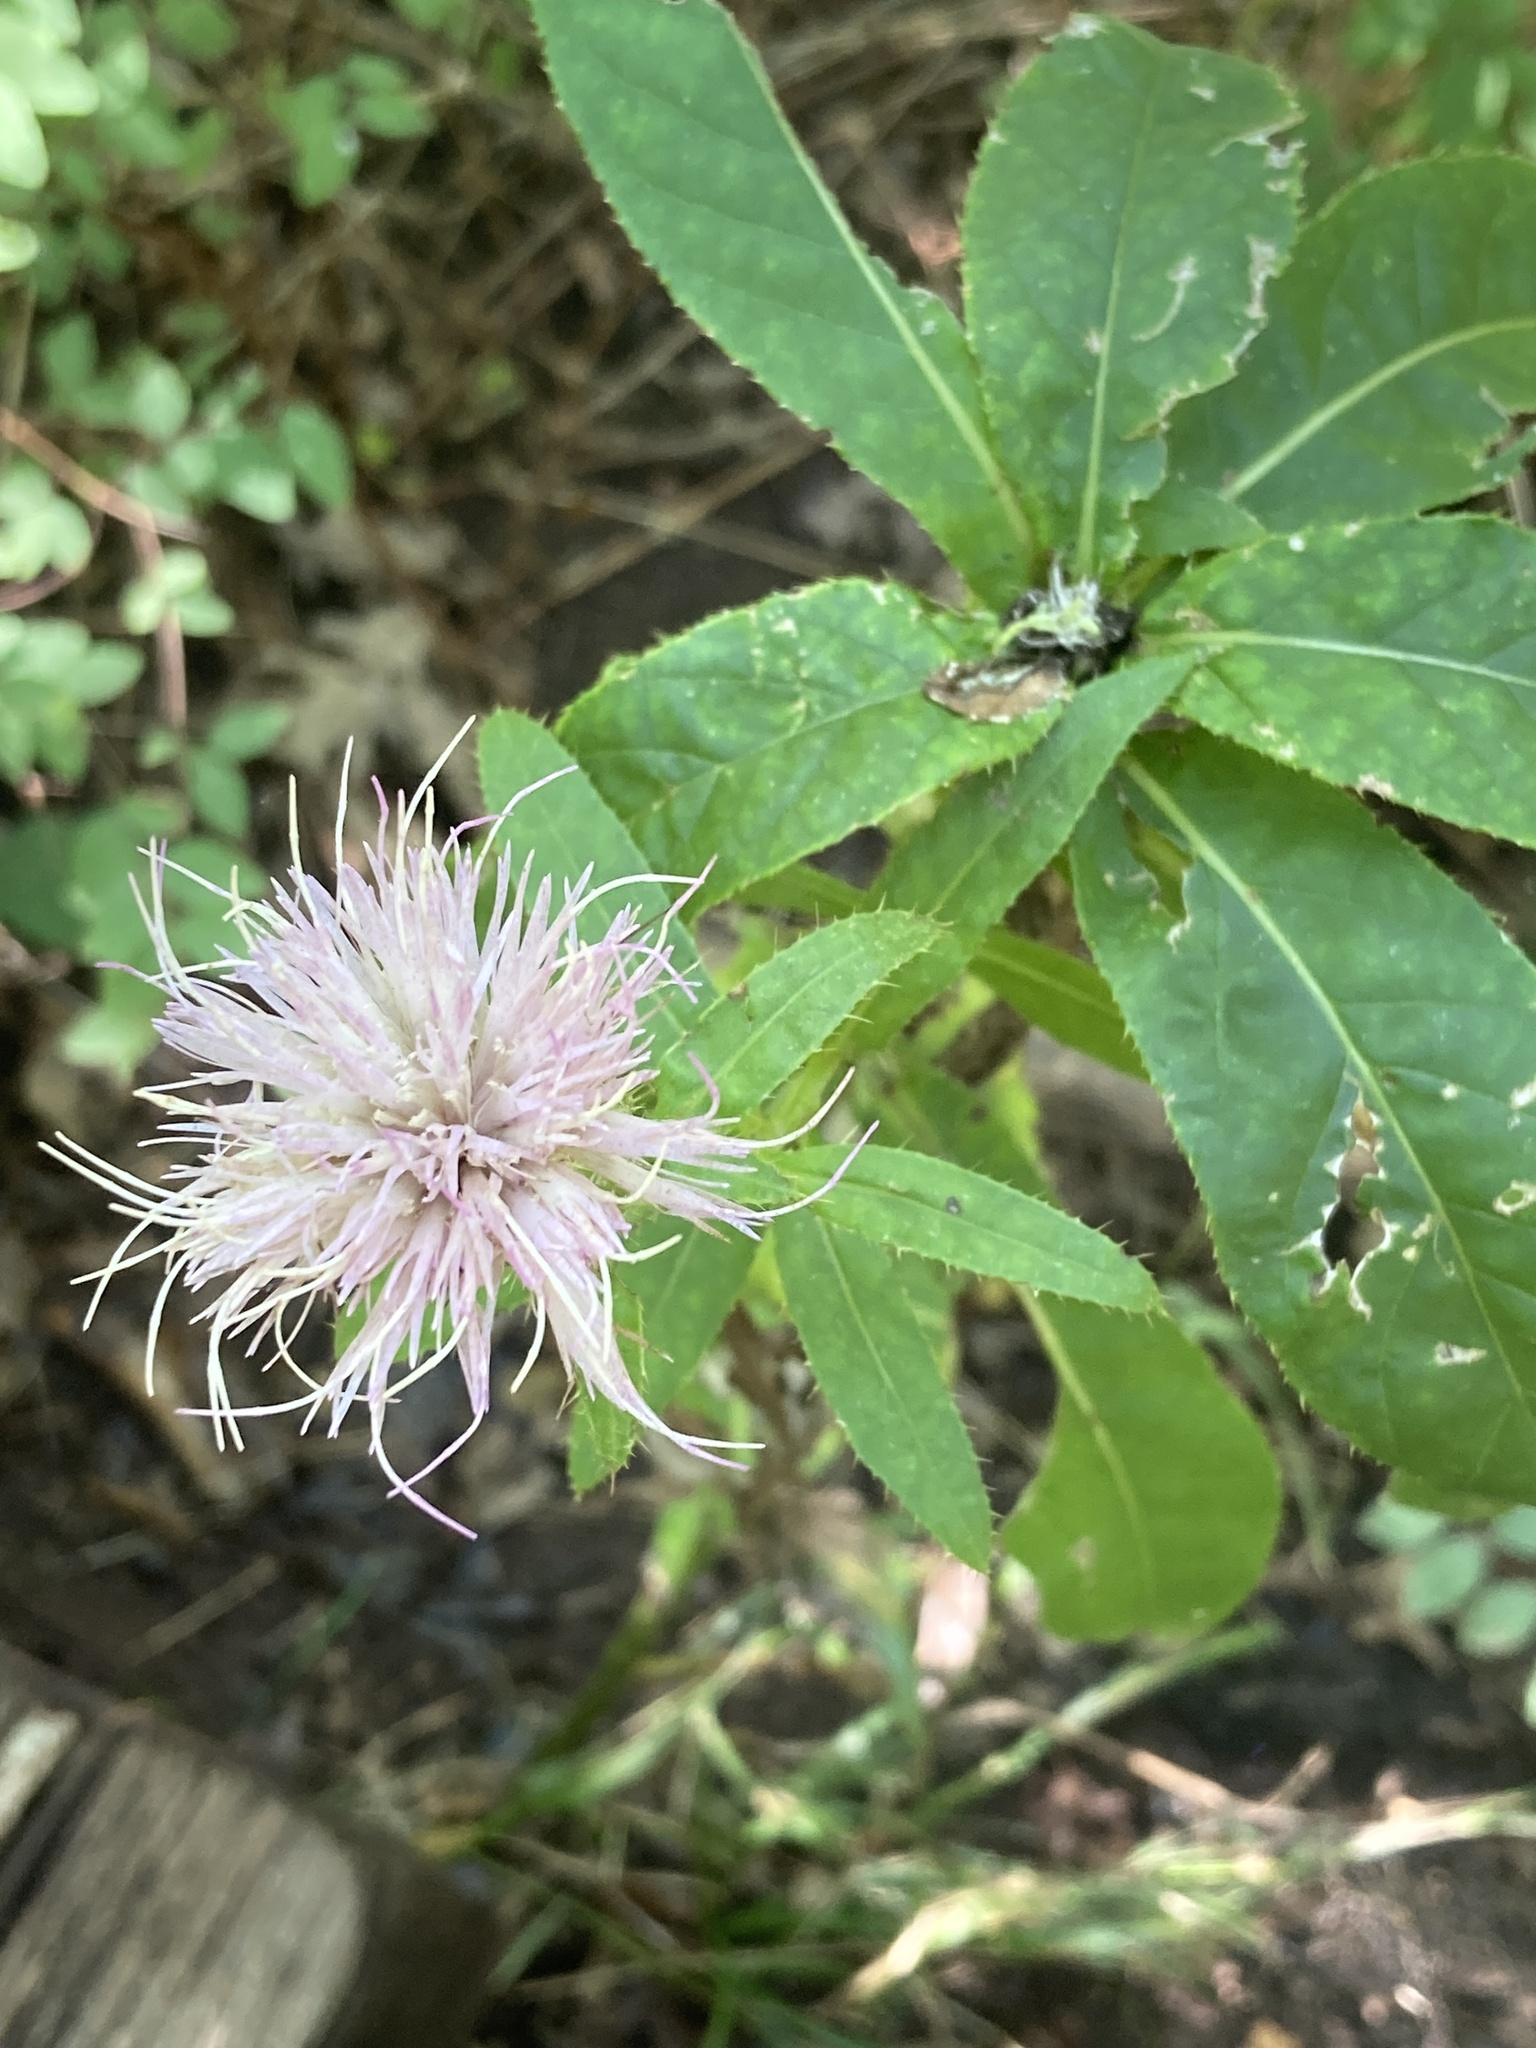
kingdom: Plantae
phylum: Tracheophyta
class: Magnoliopsida
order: Asterales
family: Asteraceae
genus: Cirsium
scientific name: Cirsium altissimum
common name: Roadside thistle
